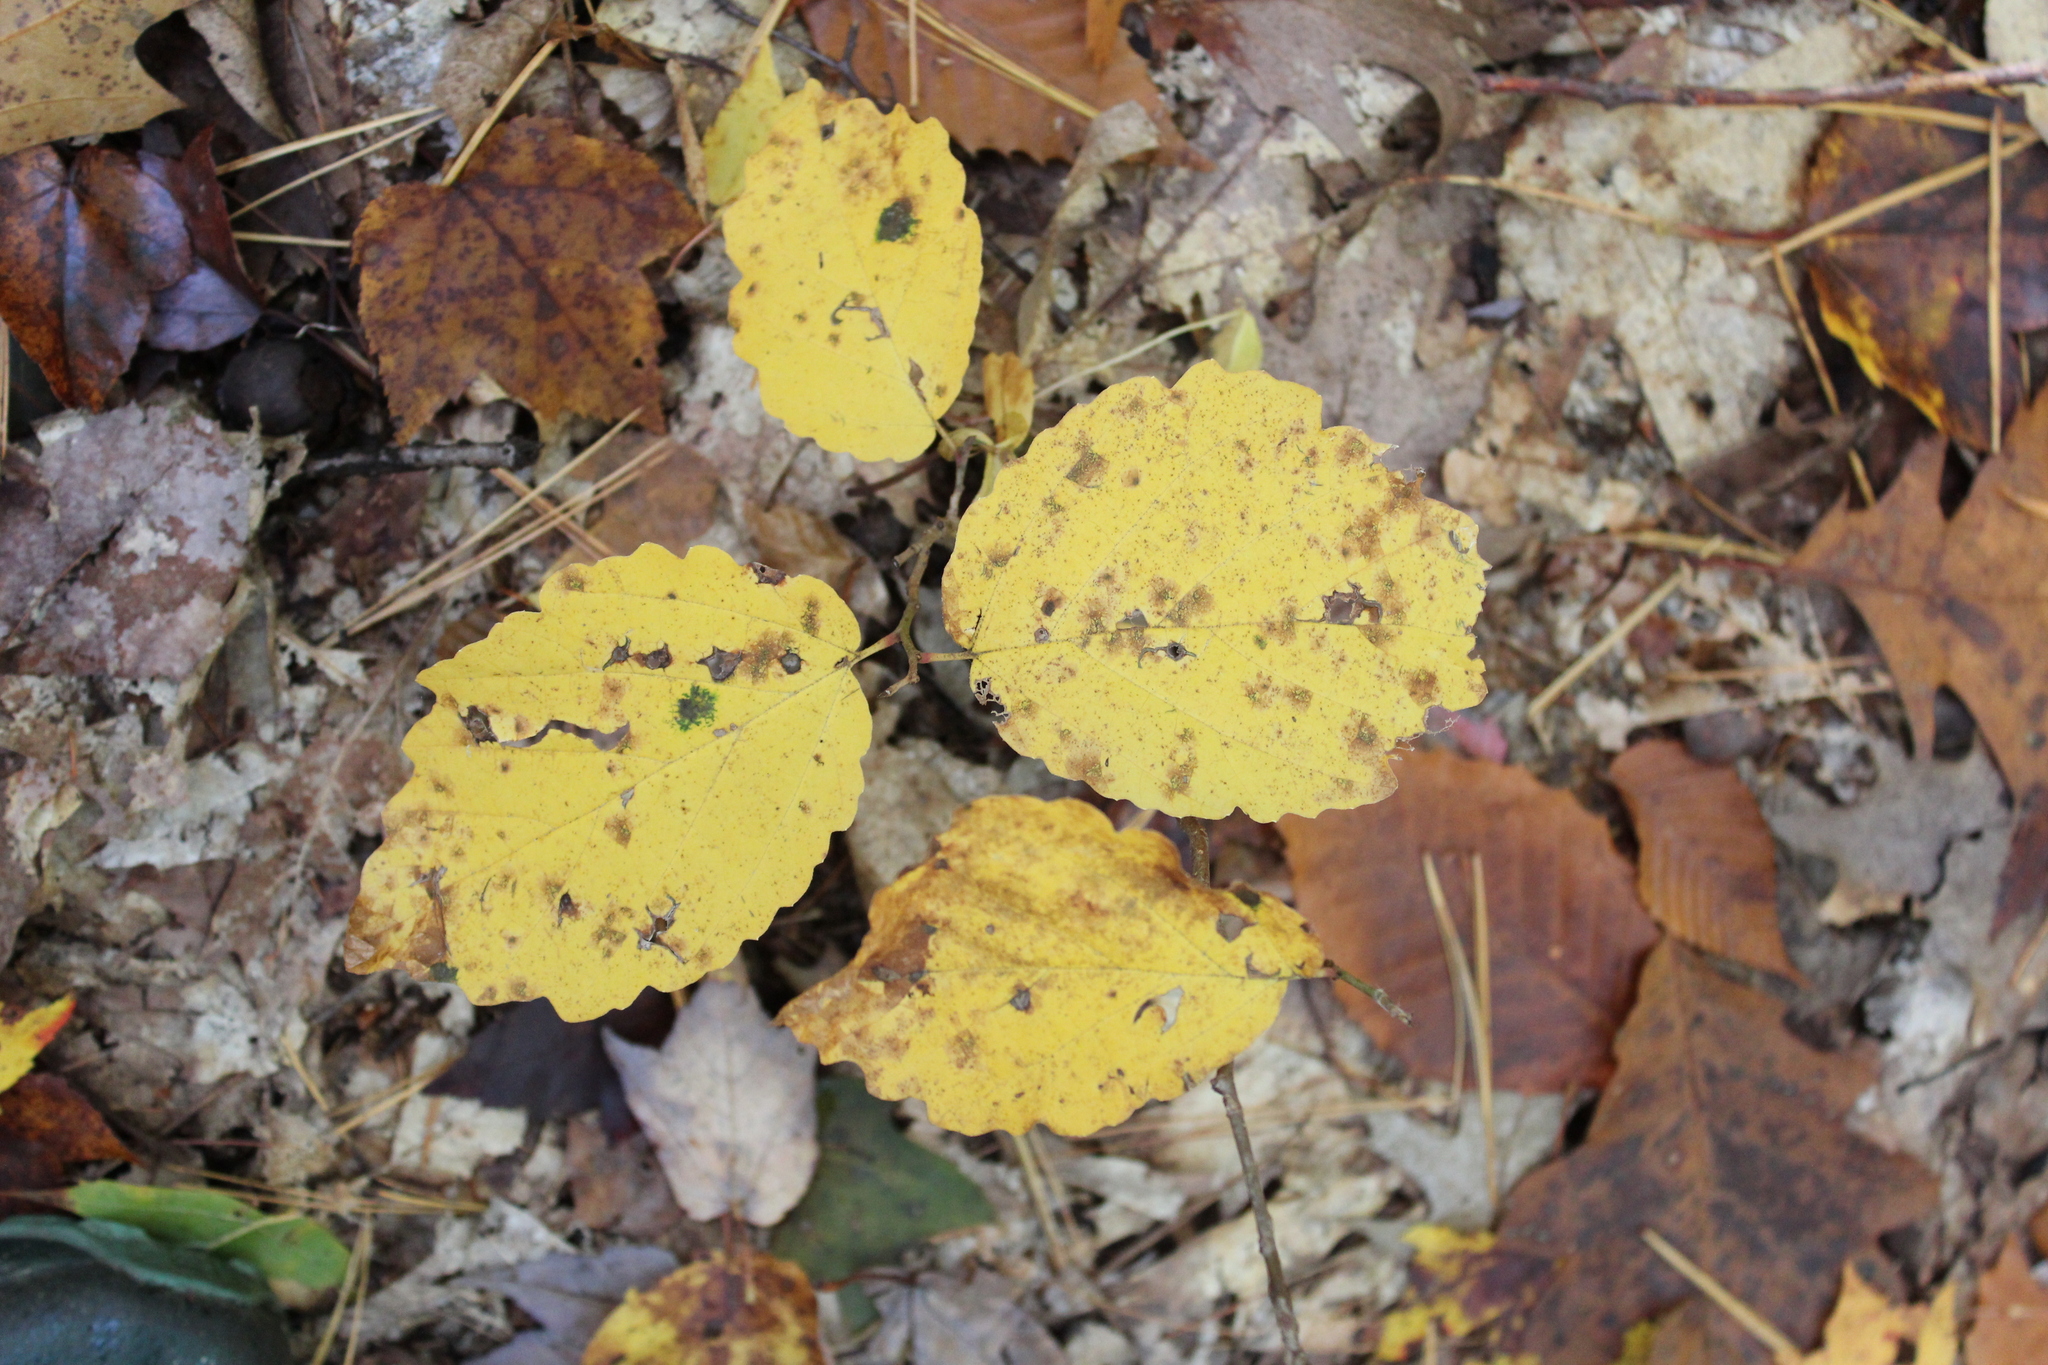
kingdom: Plantae
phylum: Tracheophyta
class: Magnoliopsida
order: Saxifragales
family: Hamamelidaceae
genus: Hamamelis
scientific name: Hamamelis virginiana
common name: Witch-hazel
